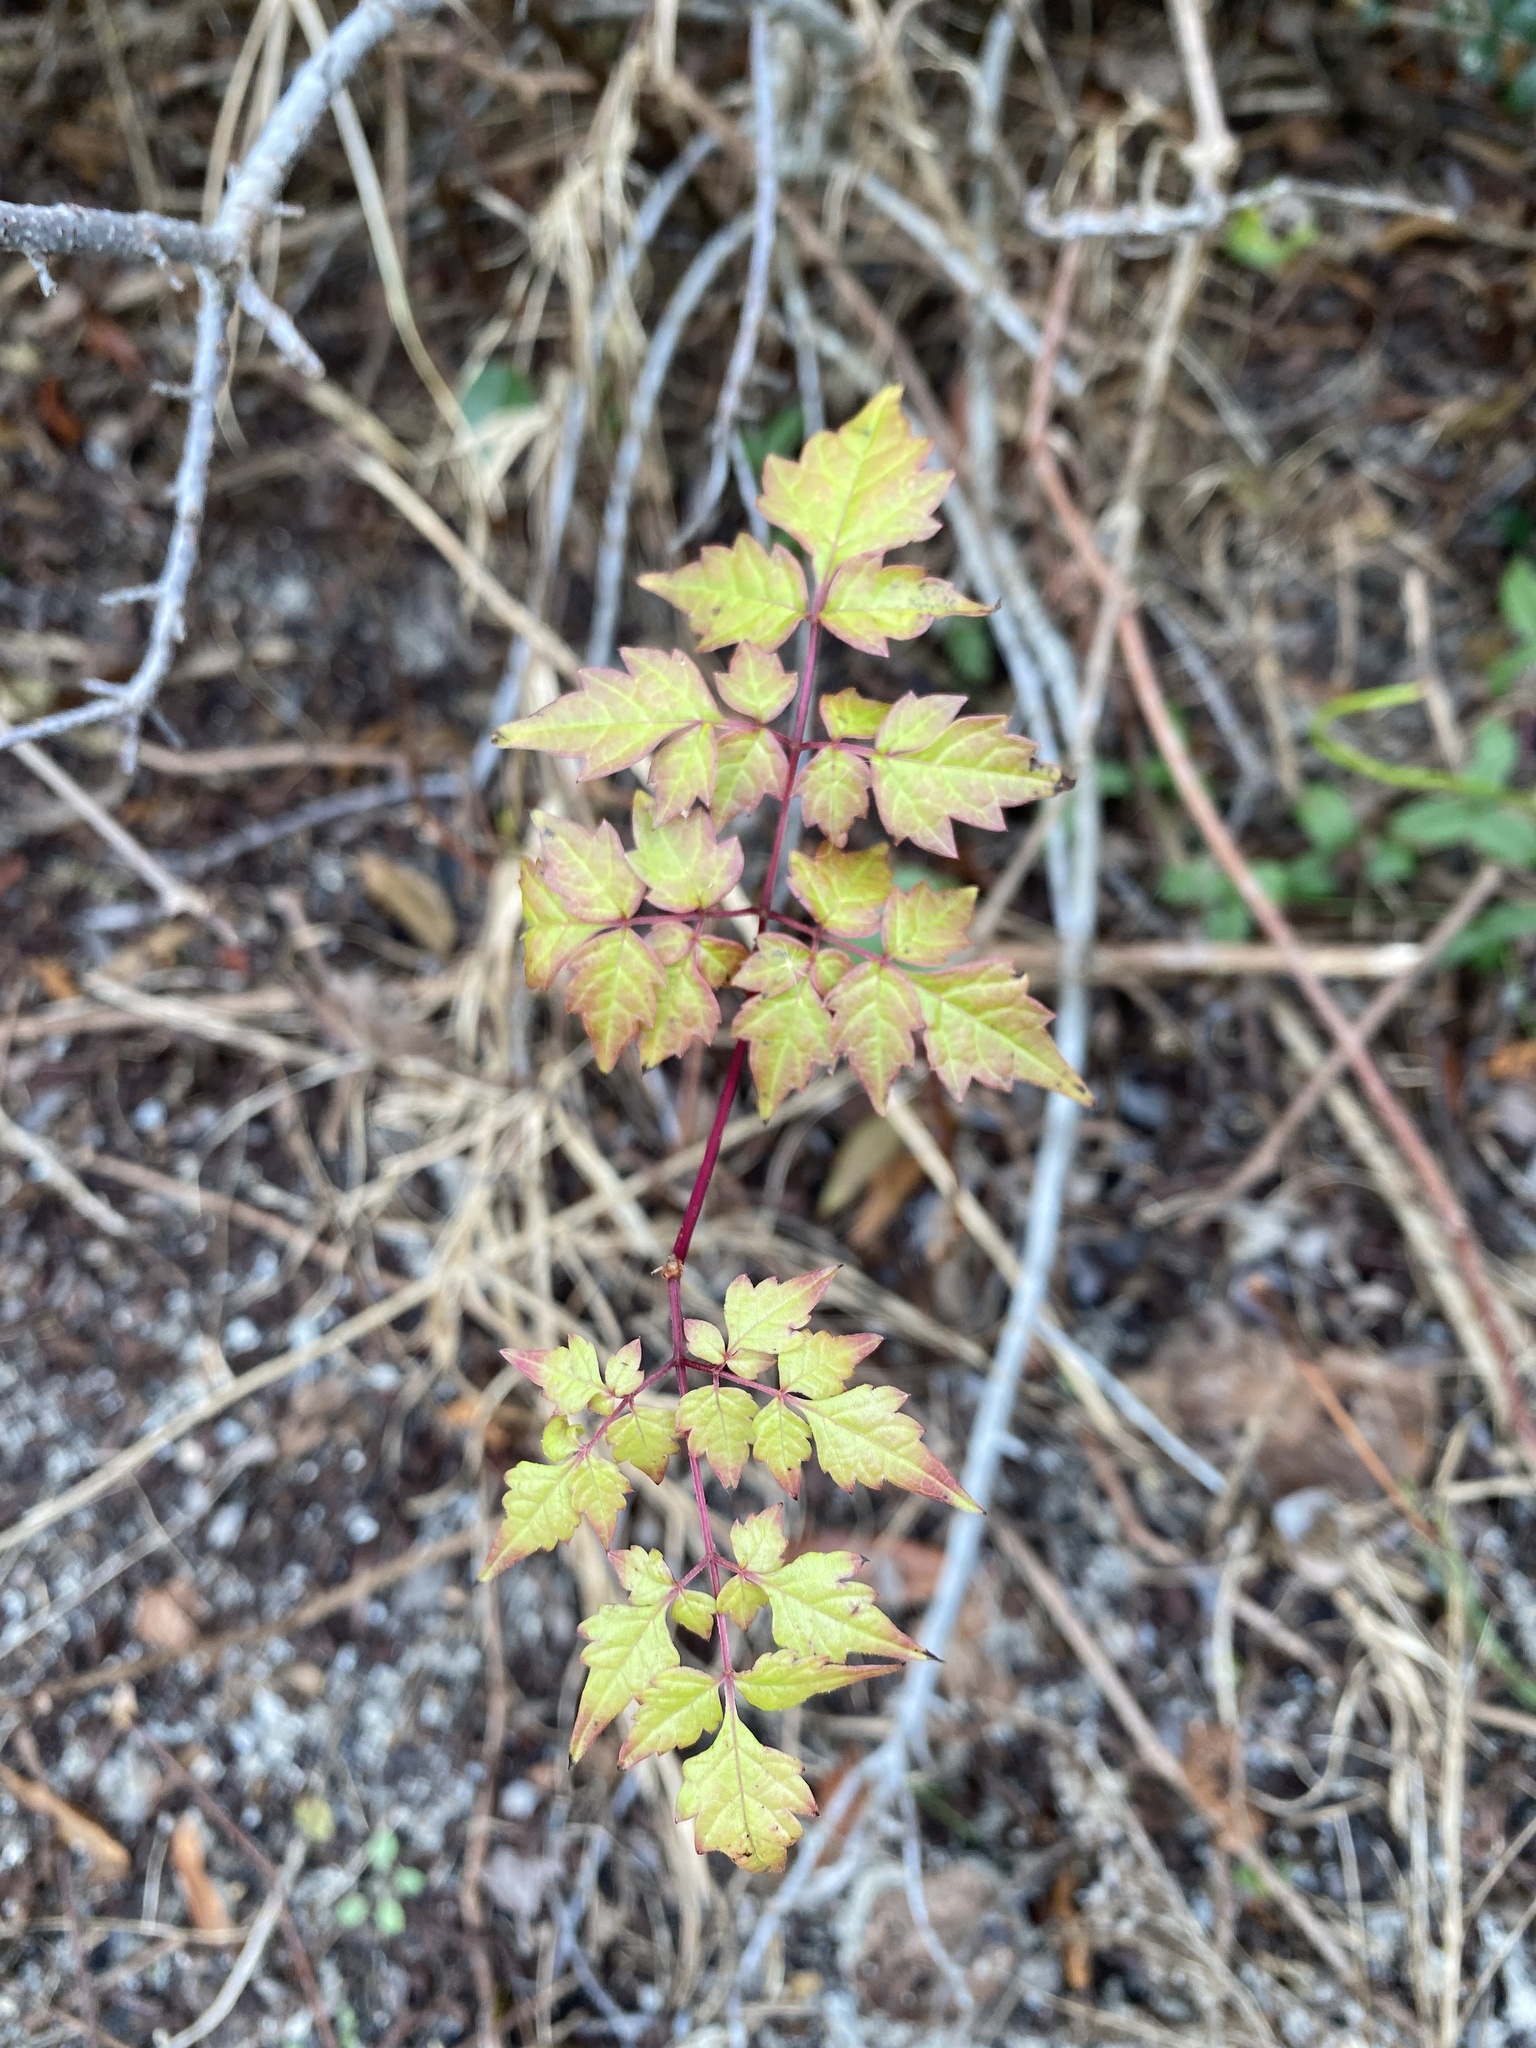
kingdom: Plantae
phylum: Tracheophyta
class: Magnoliopsida
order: Vitales
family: Vitaceae
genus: Nekemias
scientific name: Nekemias arborea
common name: Peppervine
